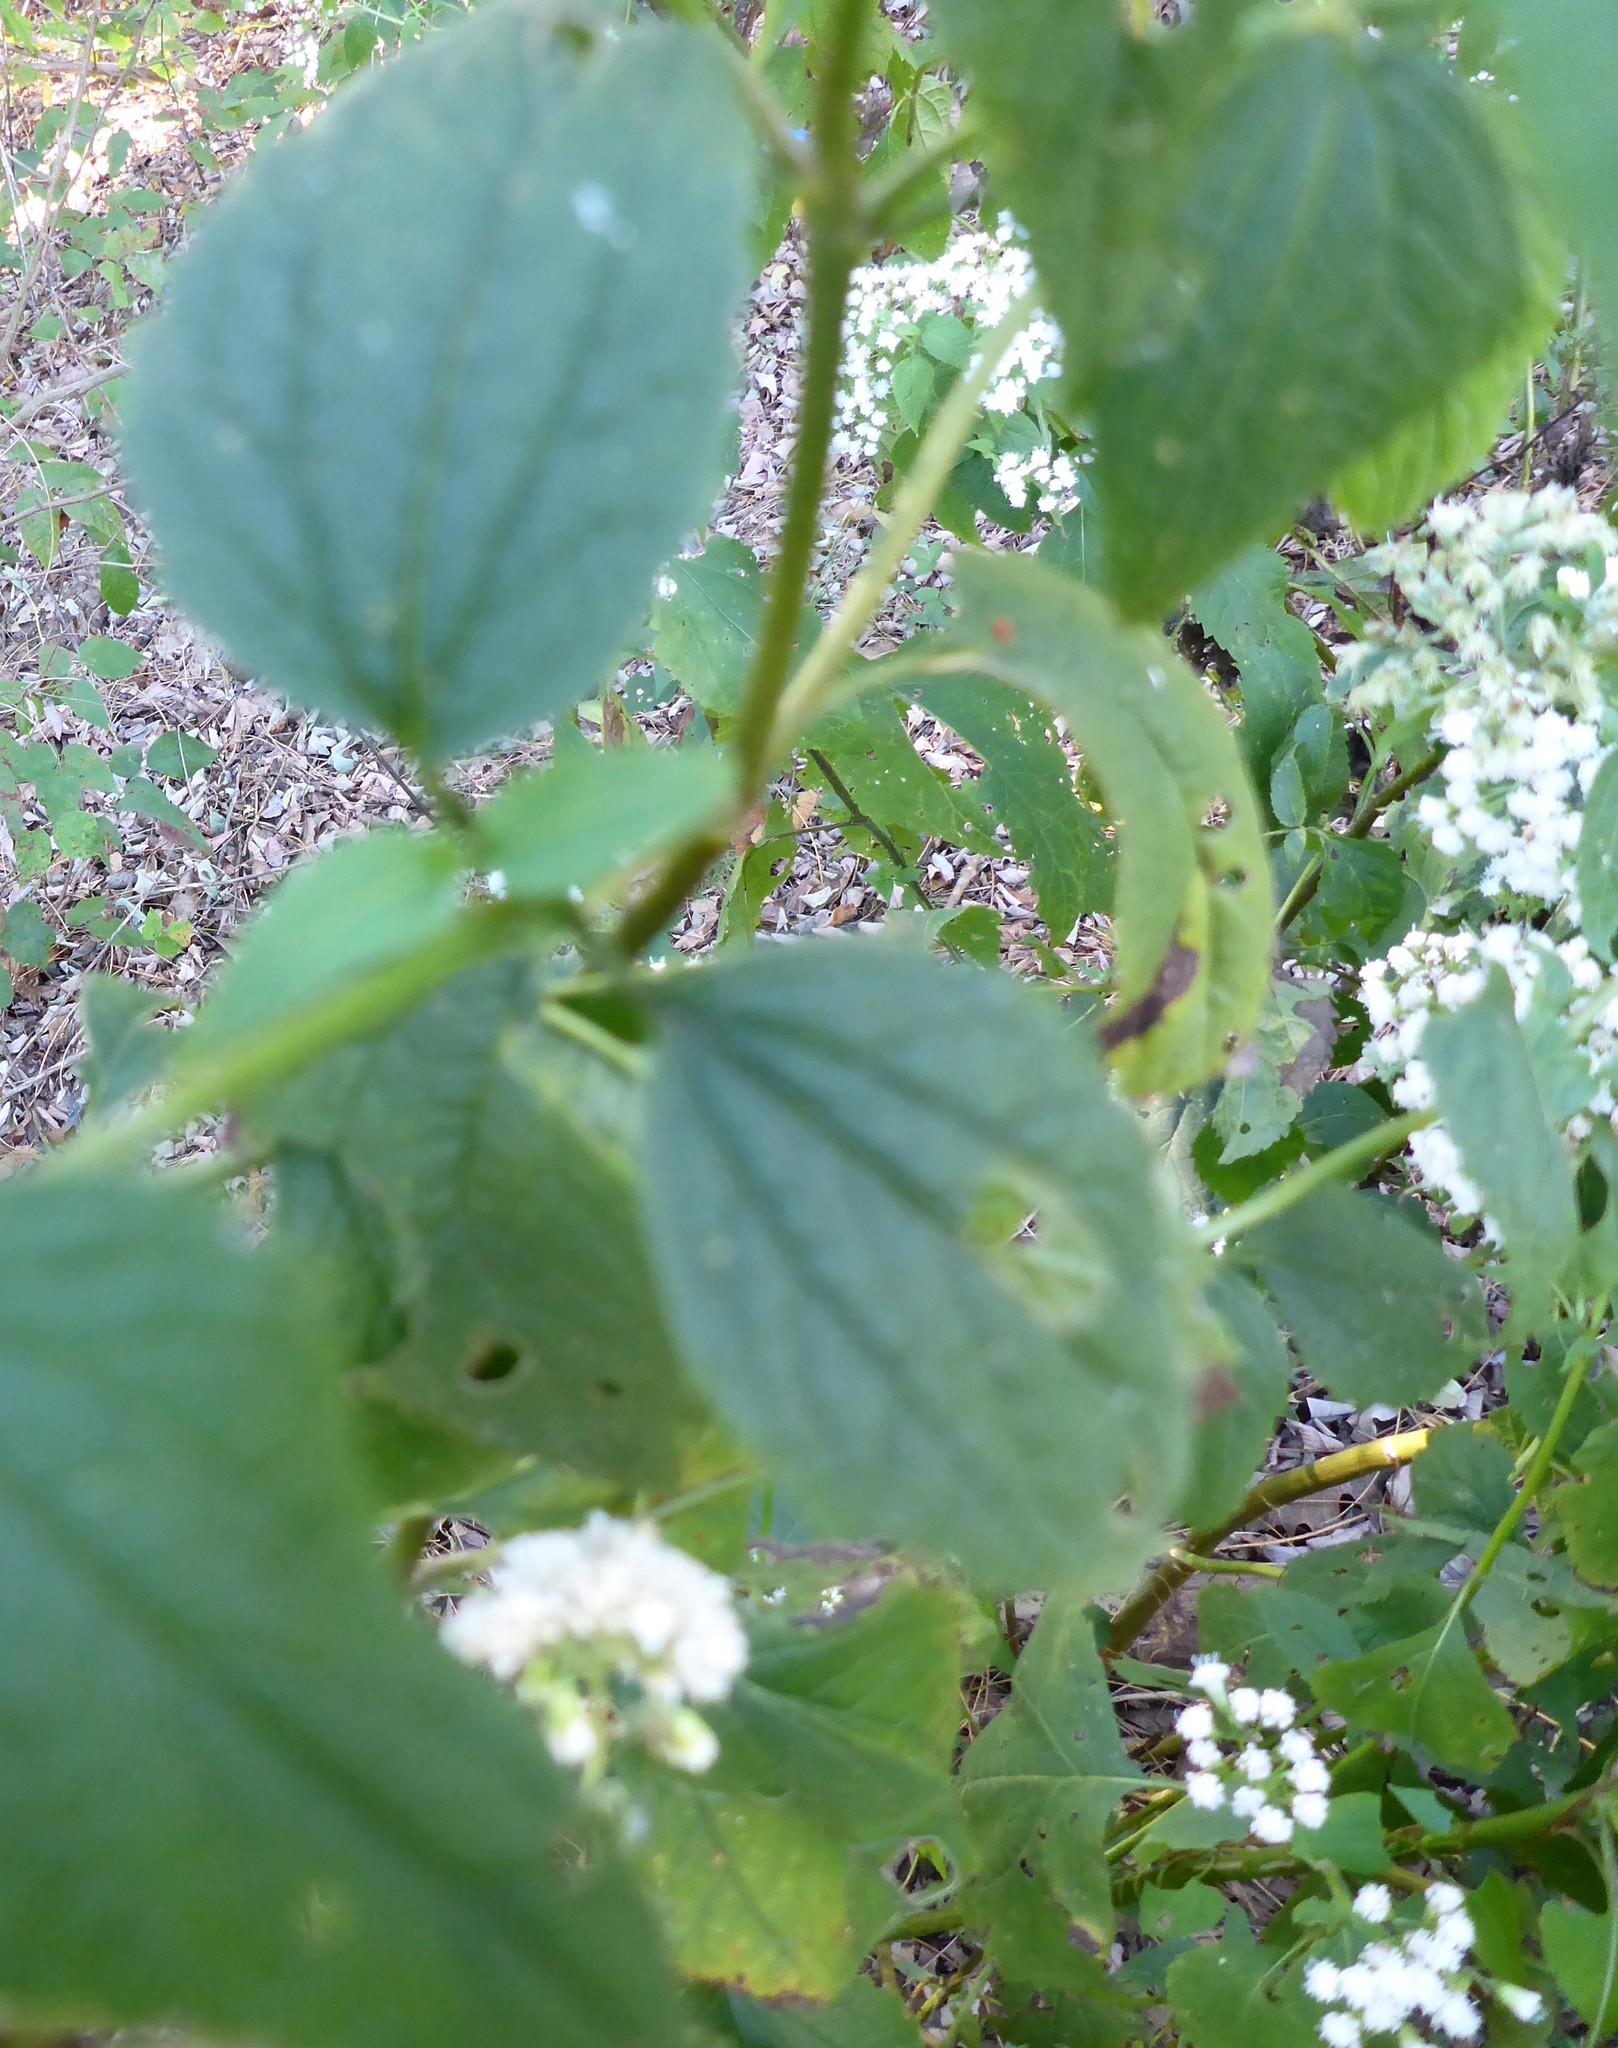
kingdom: Plantae
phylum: Tracheophyta
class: Magnoliopsida
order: Asterales
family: Asteraceae
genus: Ageratina
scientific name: Ageratina altissima
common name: White snakeroot
